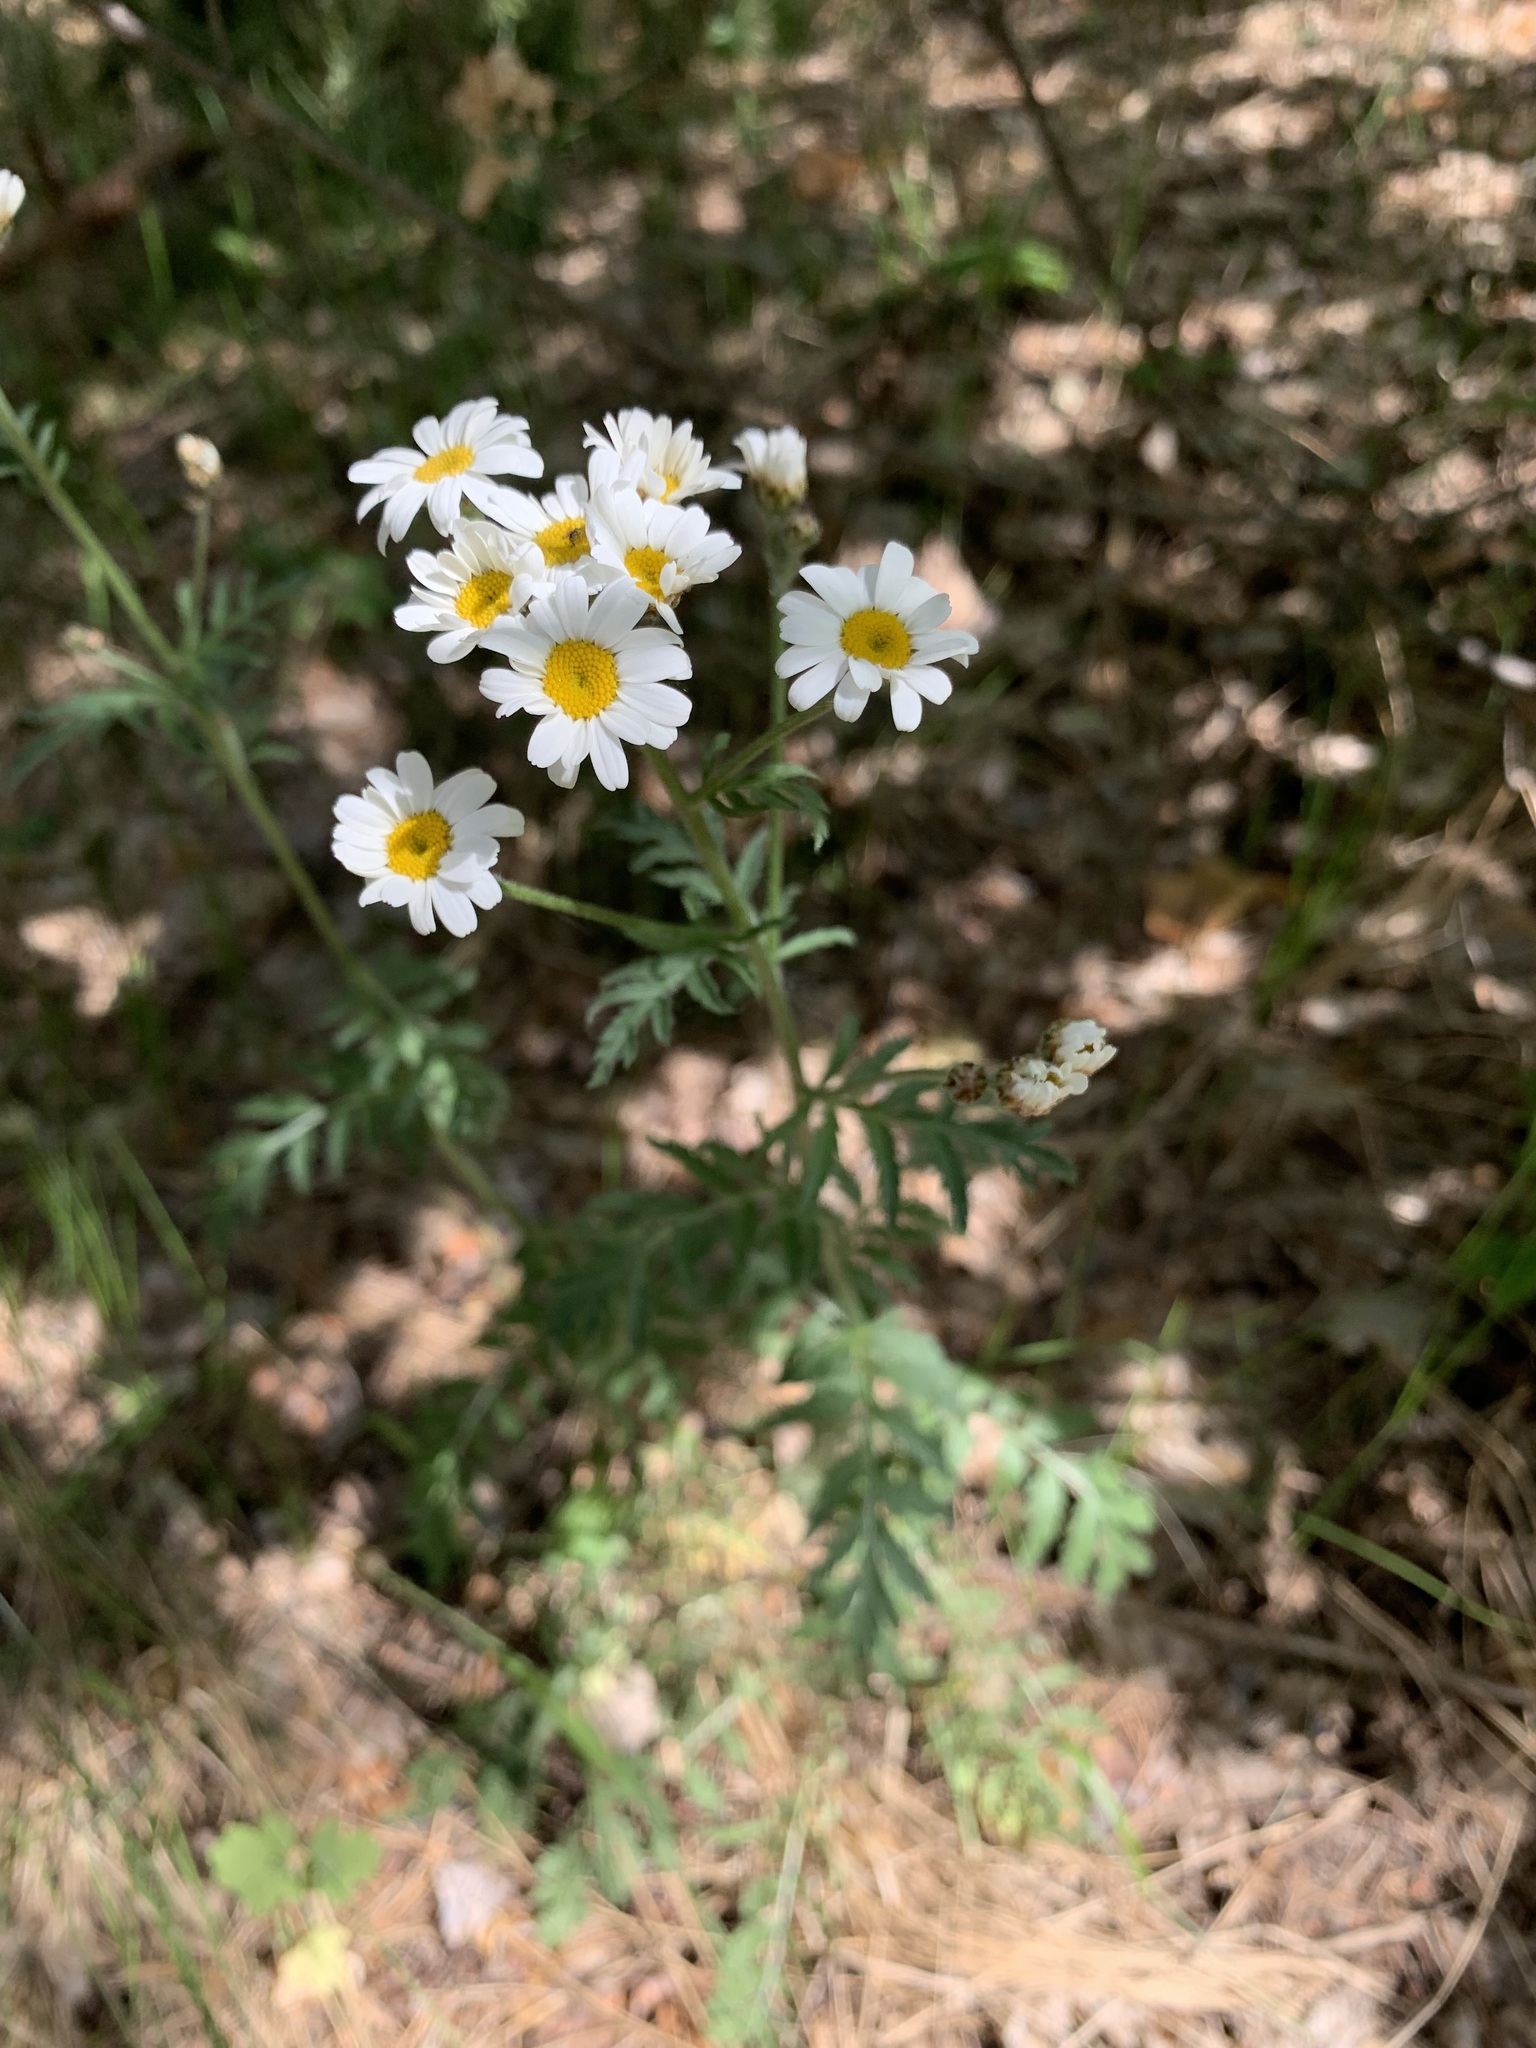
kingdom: Plantae
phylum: Tracheophyta
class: Magnoliopsida
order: Asterales
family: Asteraceae
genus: Tanacetum
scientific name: Tanacetum corymbosum
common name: Scentless feverfew
